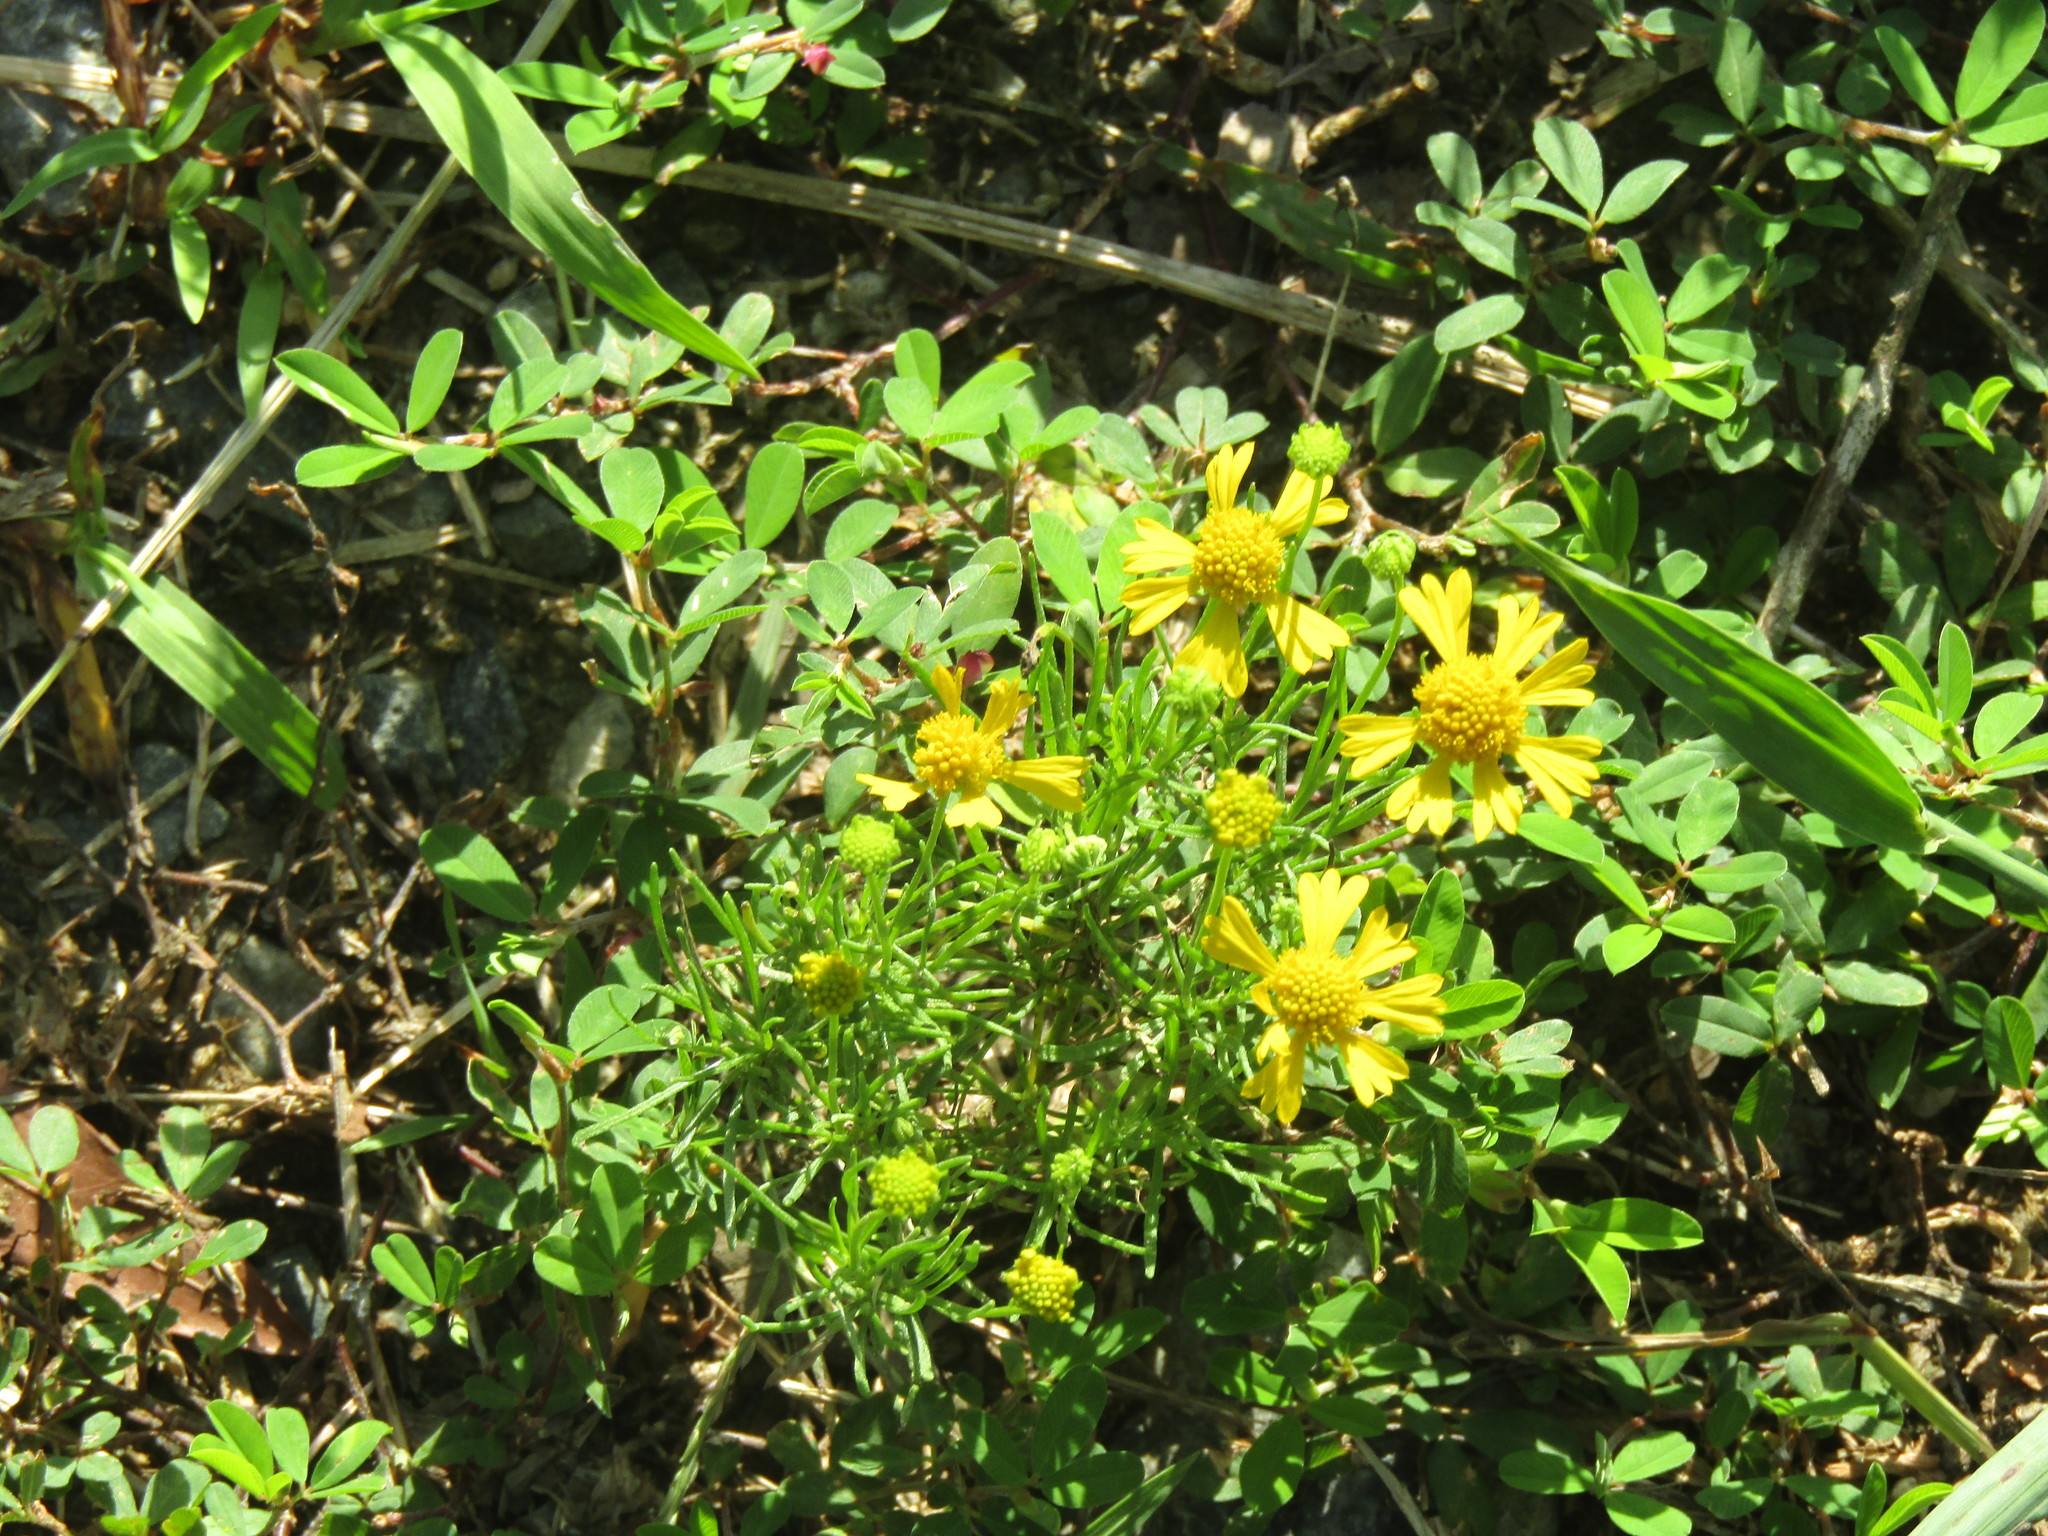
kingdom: Plantae
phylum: Tracheophyta
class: Magnoliopsida
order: Asterales
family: Asteraceae
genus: Helenium
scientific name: Helenium amarum
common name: Bitter sneezeweed
